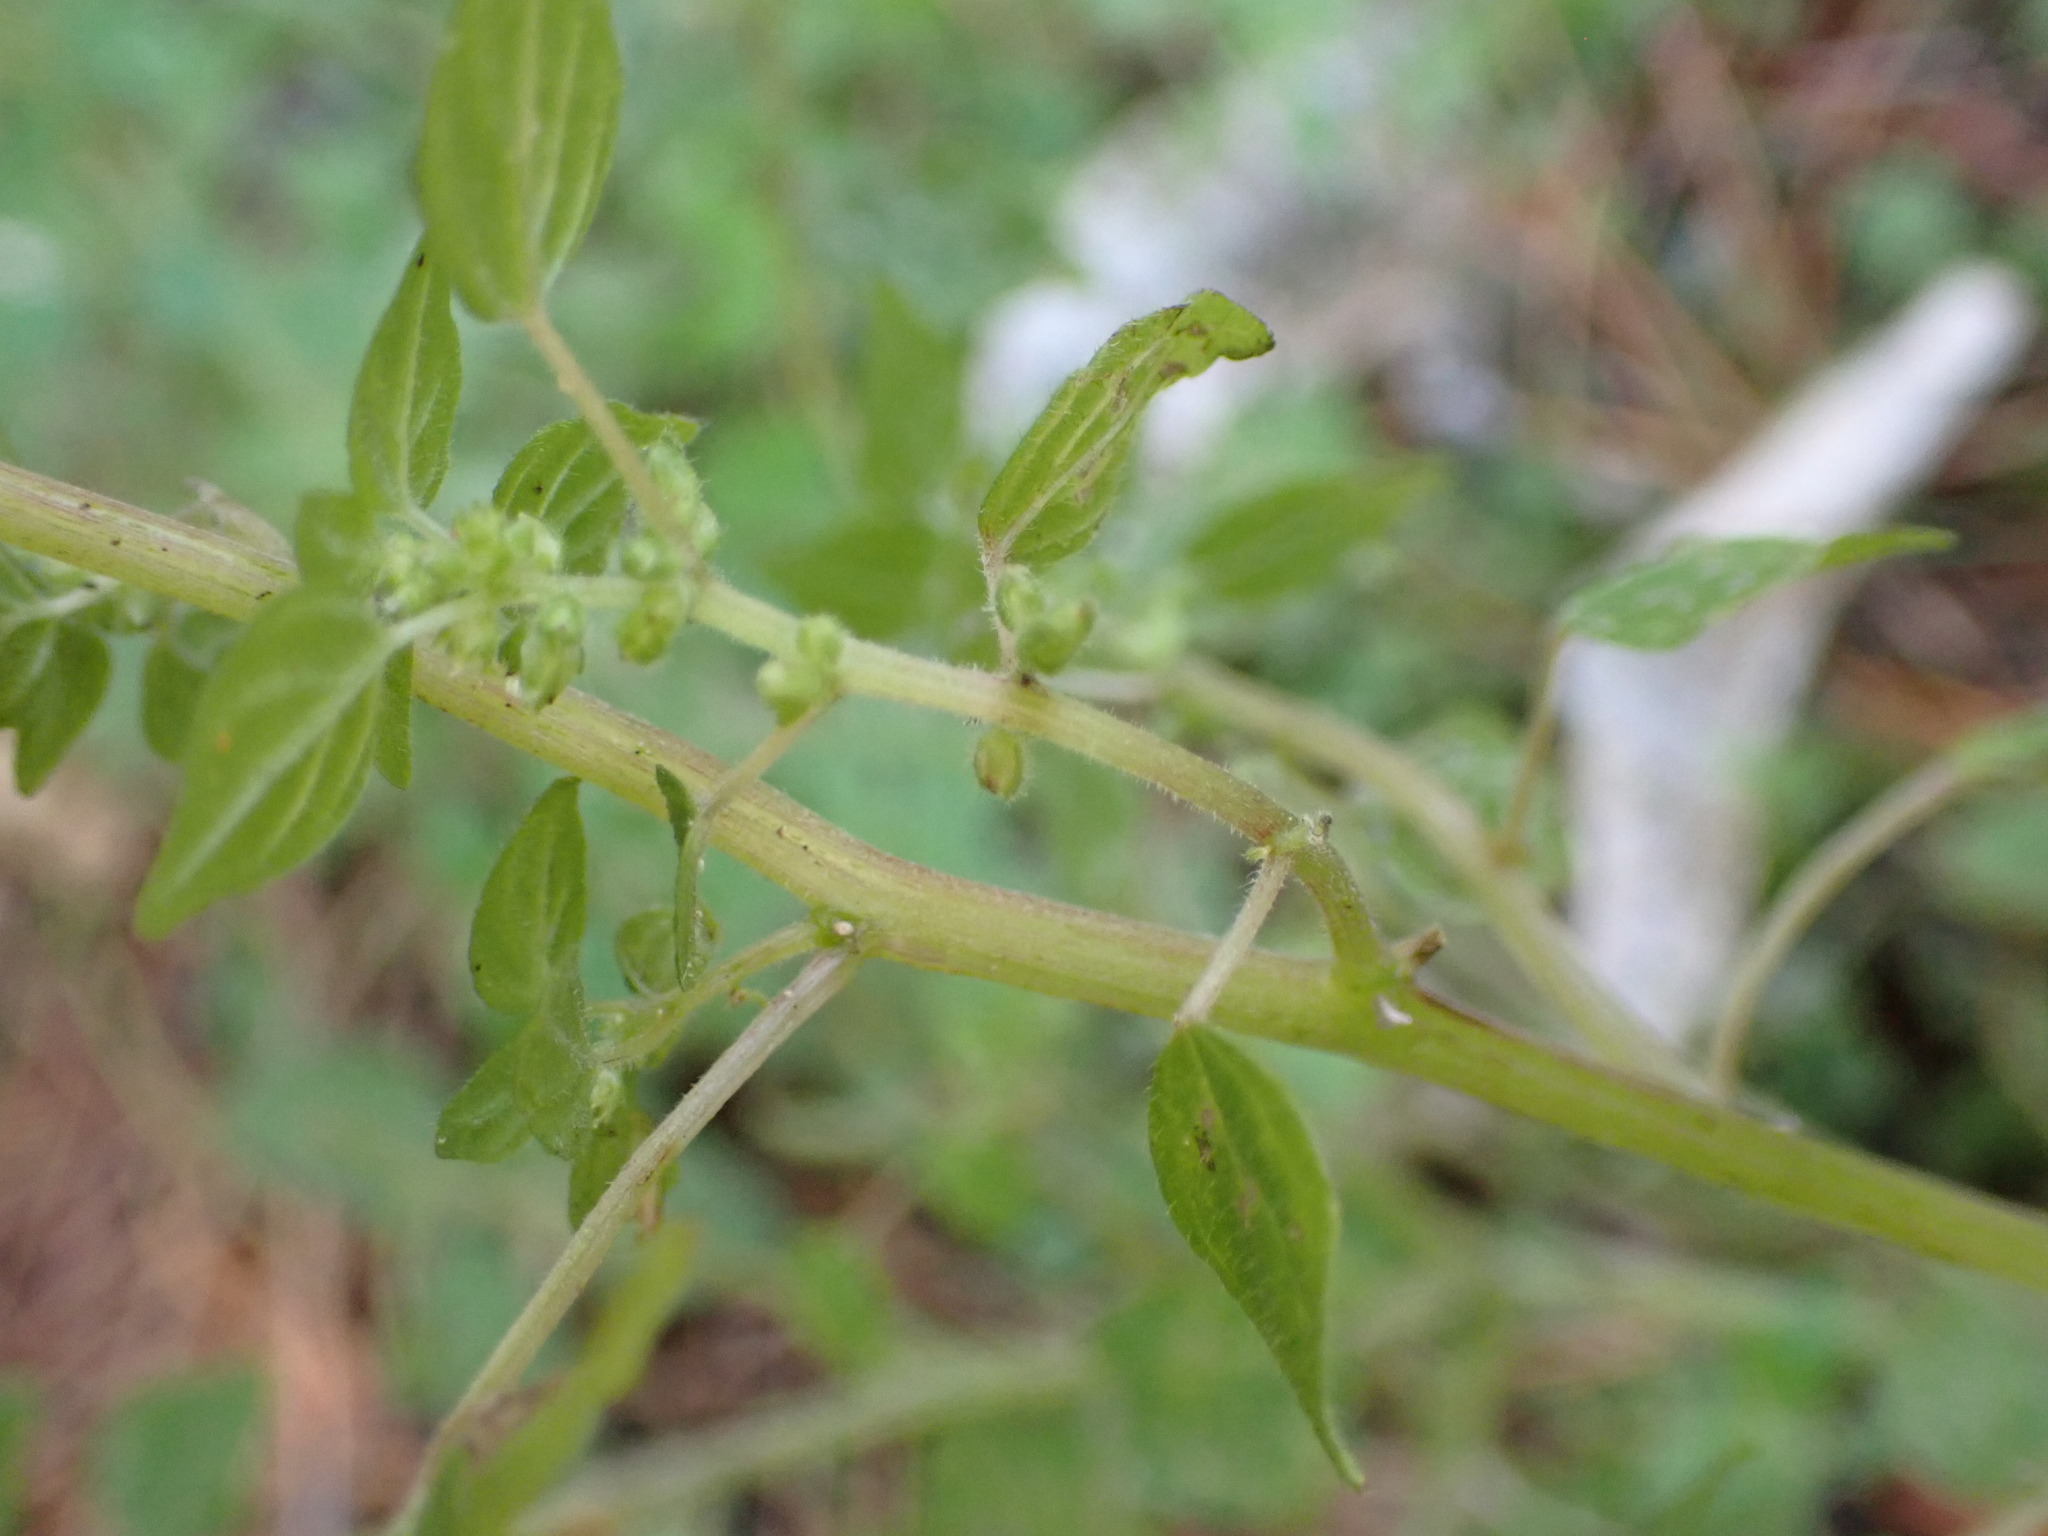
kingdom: Plantae
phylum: Tracheophyta
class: Magnoliopsida
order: Rosales
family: Urticaceae
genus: Parietaria
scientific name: Parietaria debilis
